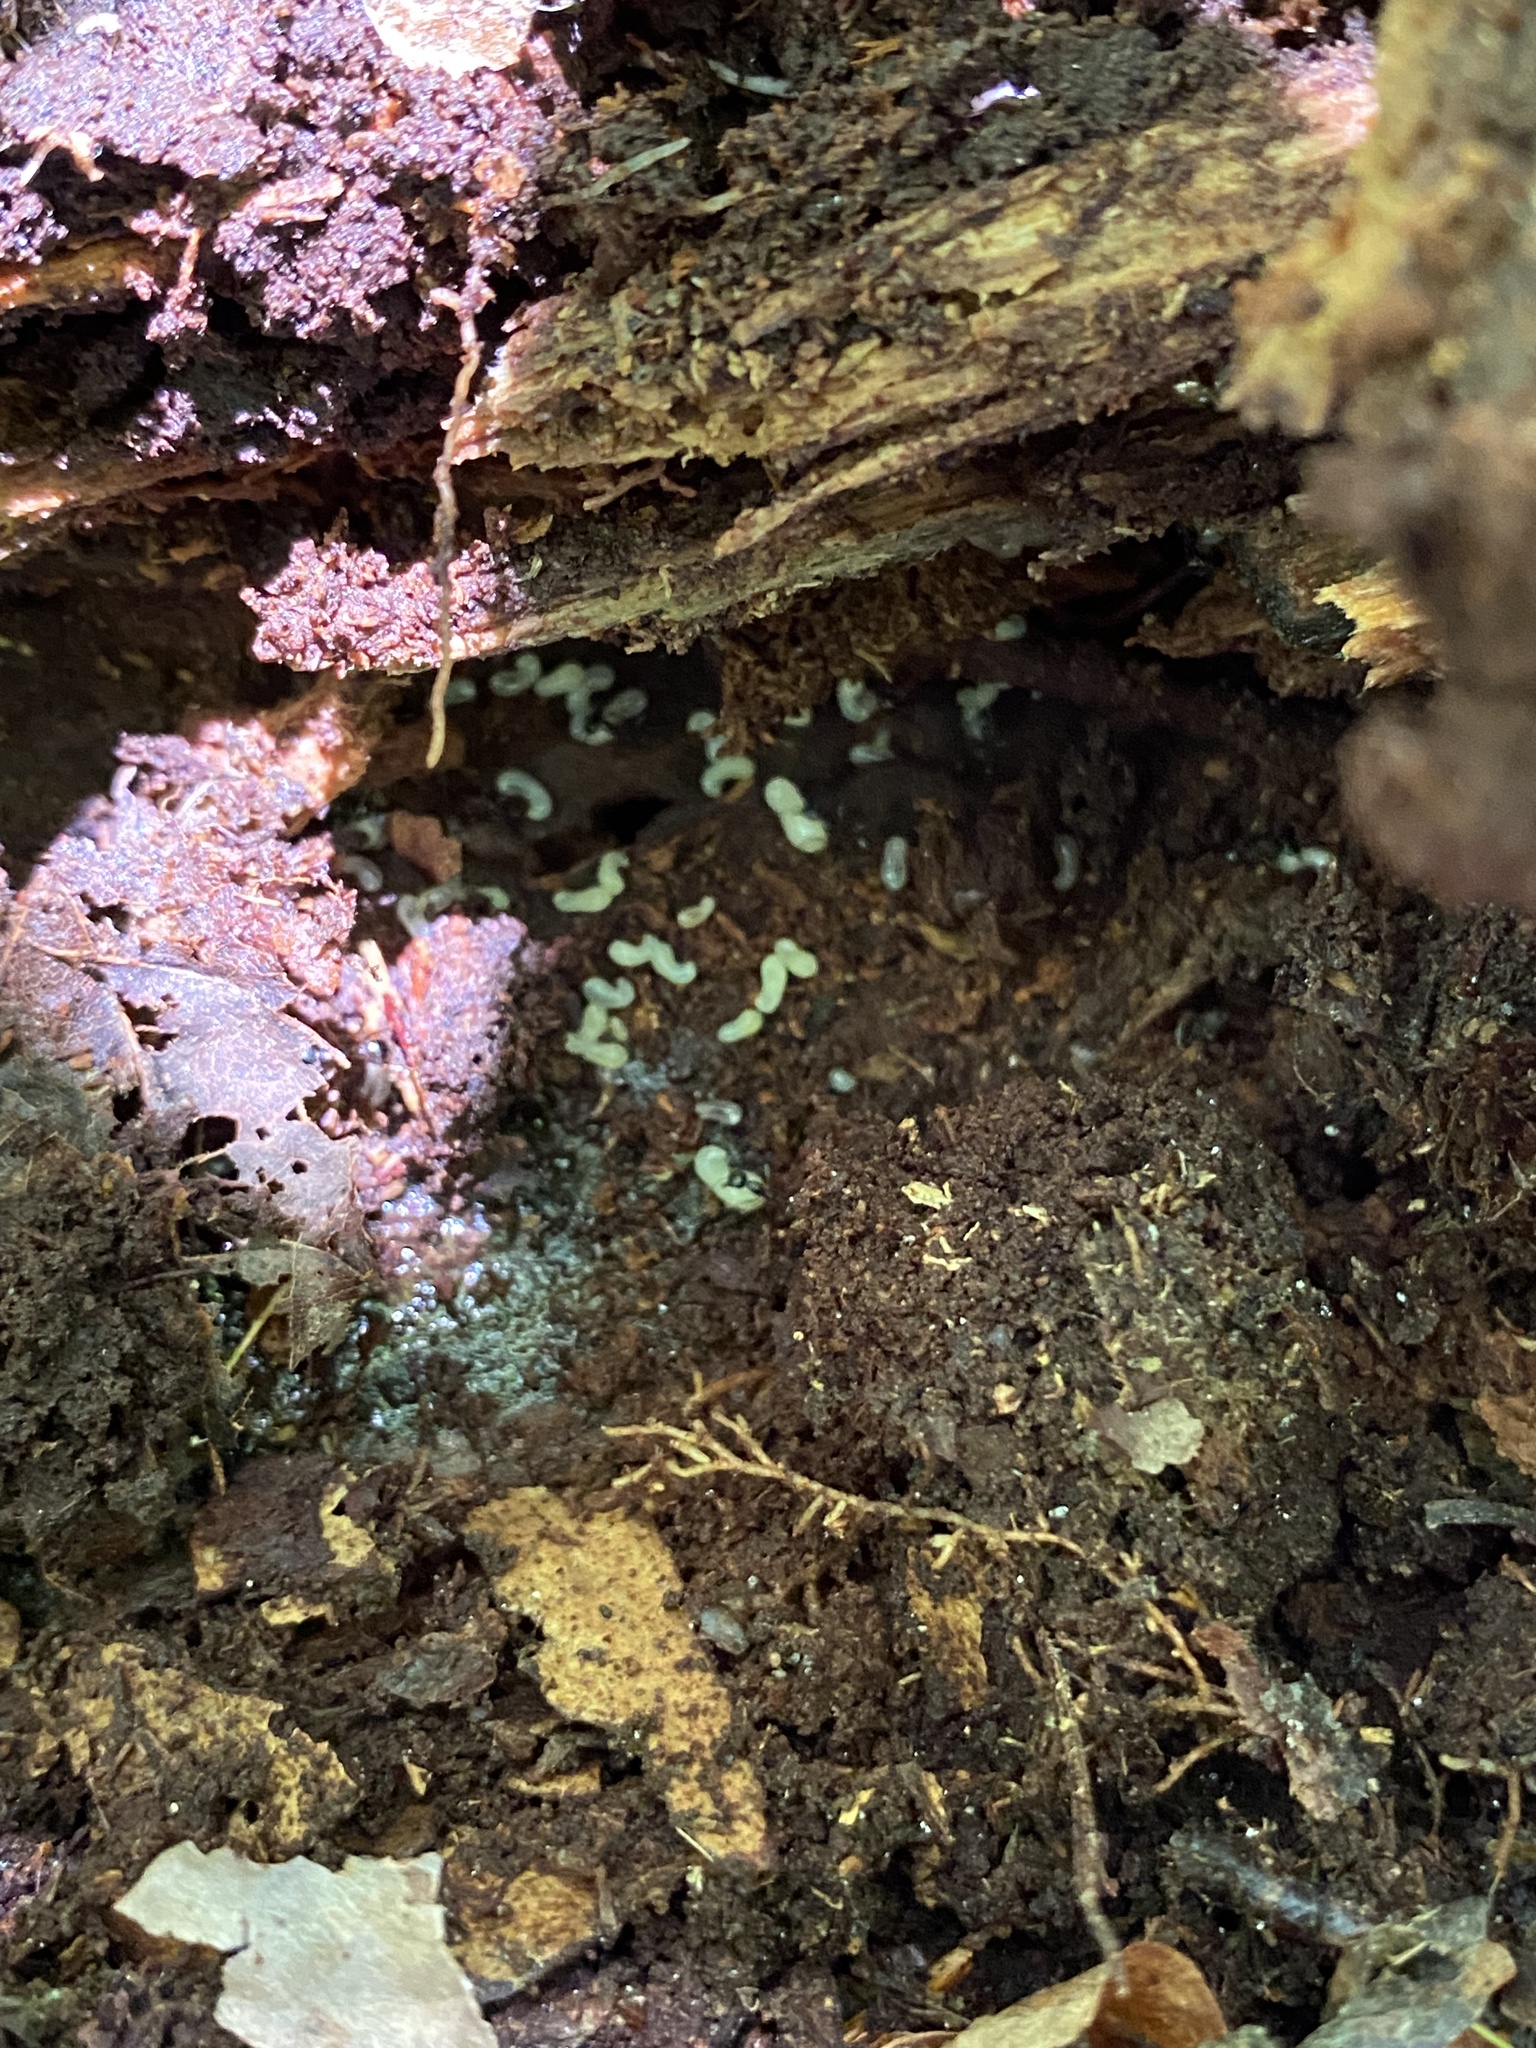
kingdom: Animalia
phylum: Arthropoda
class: Insecta
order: Hymenoptera
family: Formicidae
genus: Aphaenogaster
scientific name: Aphaenogaster picea
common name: Pitch-black collared ant
